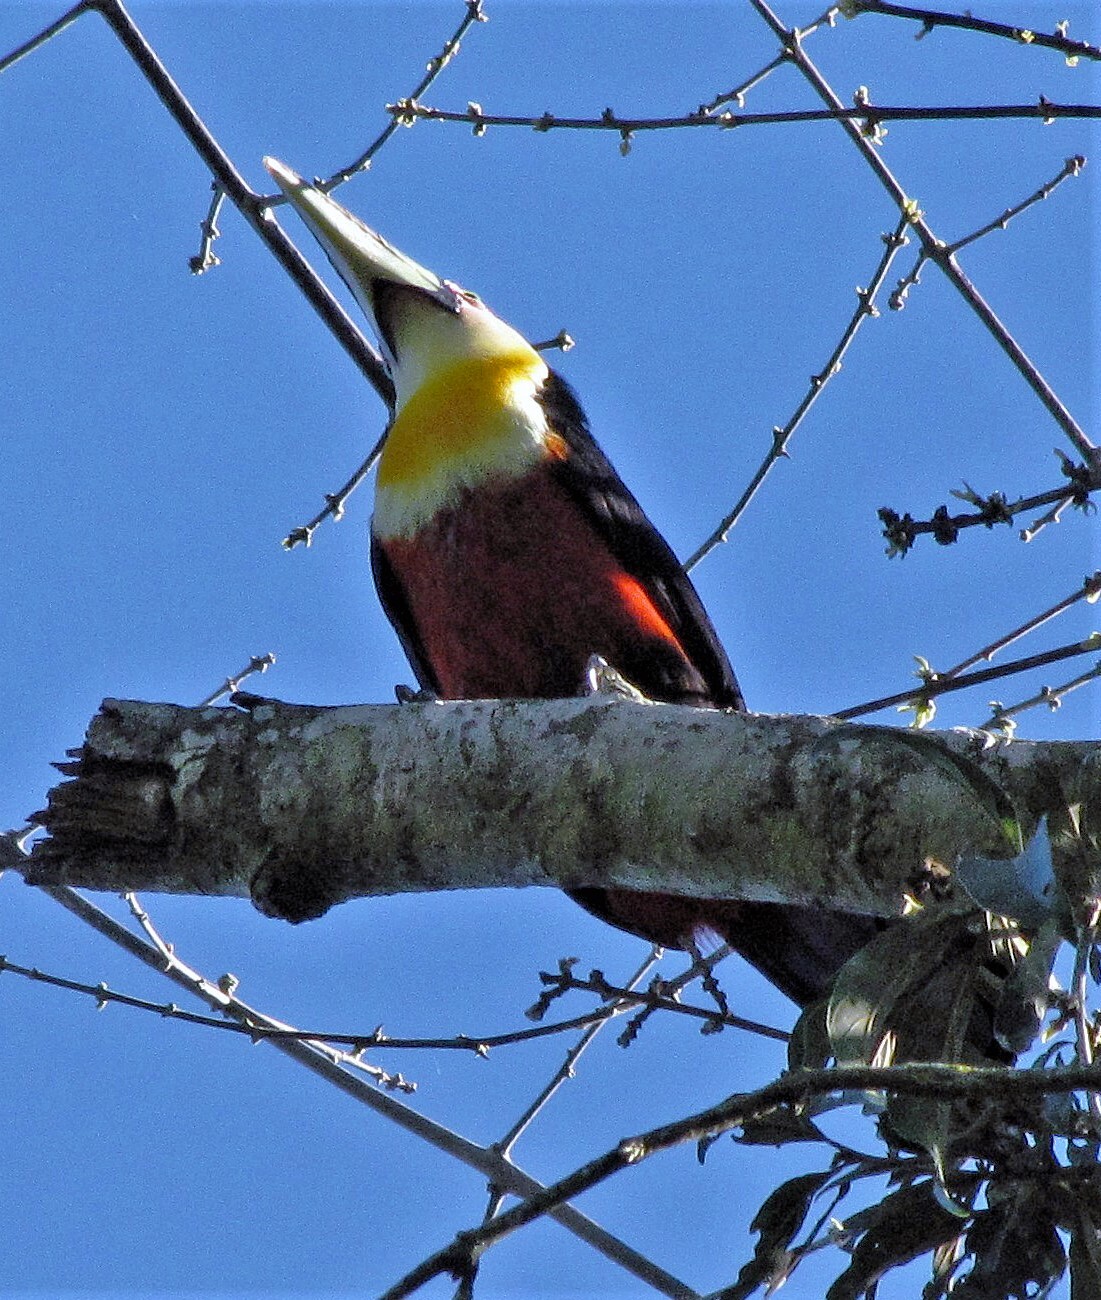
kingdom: Animalia
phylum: Chordata
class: Aves
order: Piciformes
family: Ramphastidae
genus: Ramphastos
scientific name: Ramphastos dicolorus
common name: Green-billed toucan
